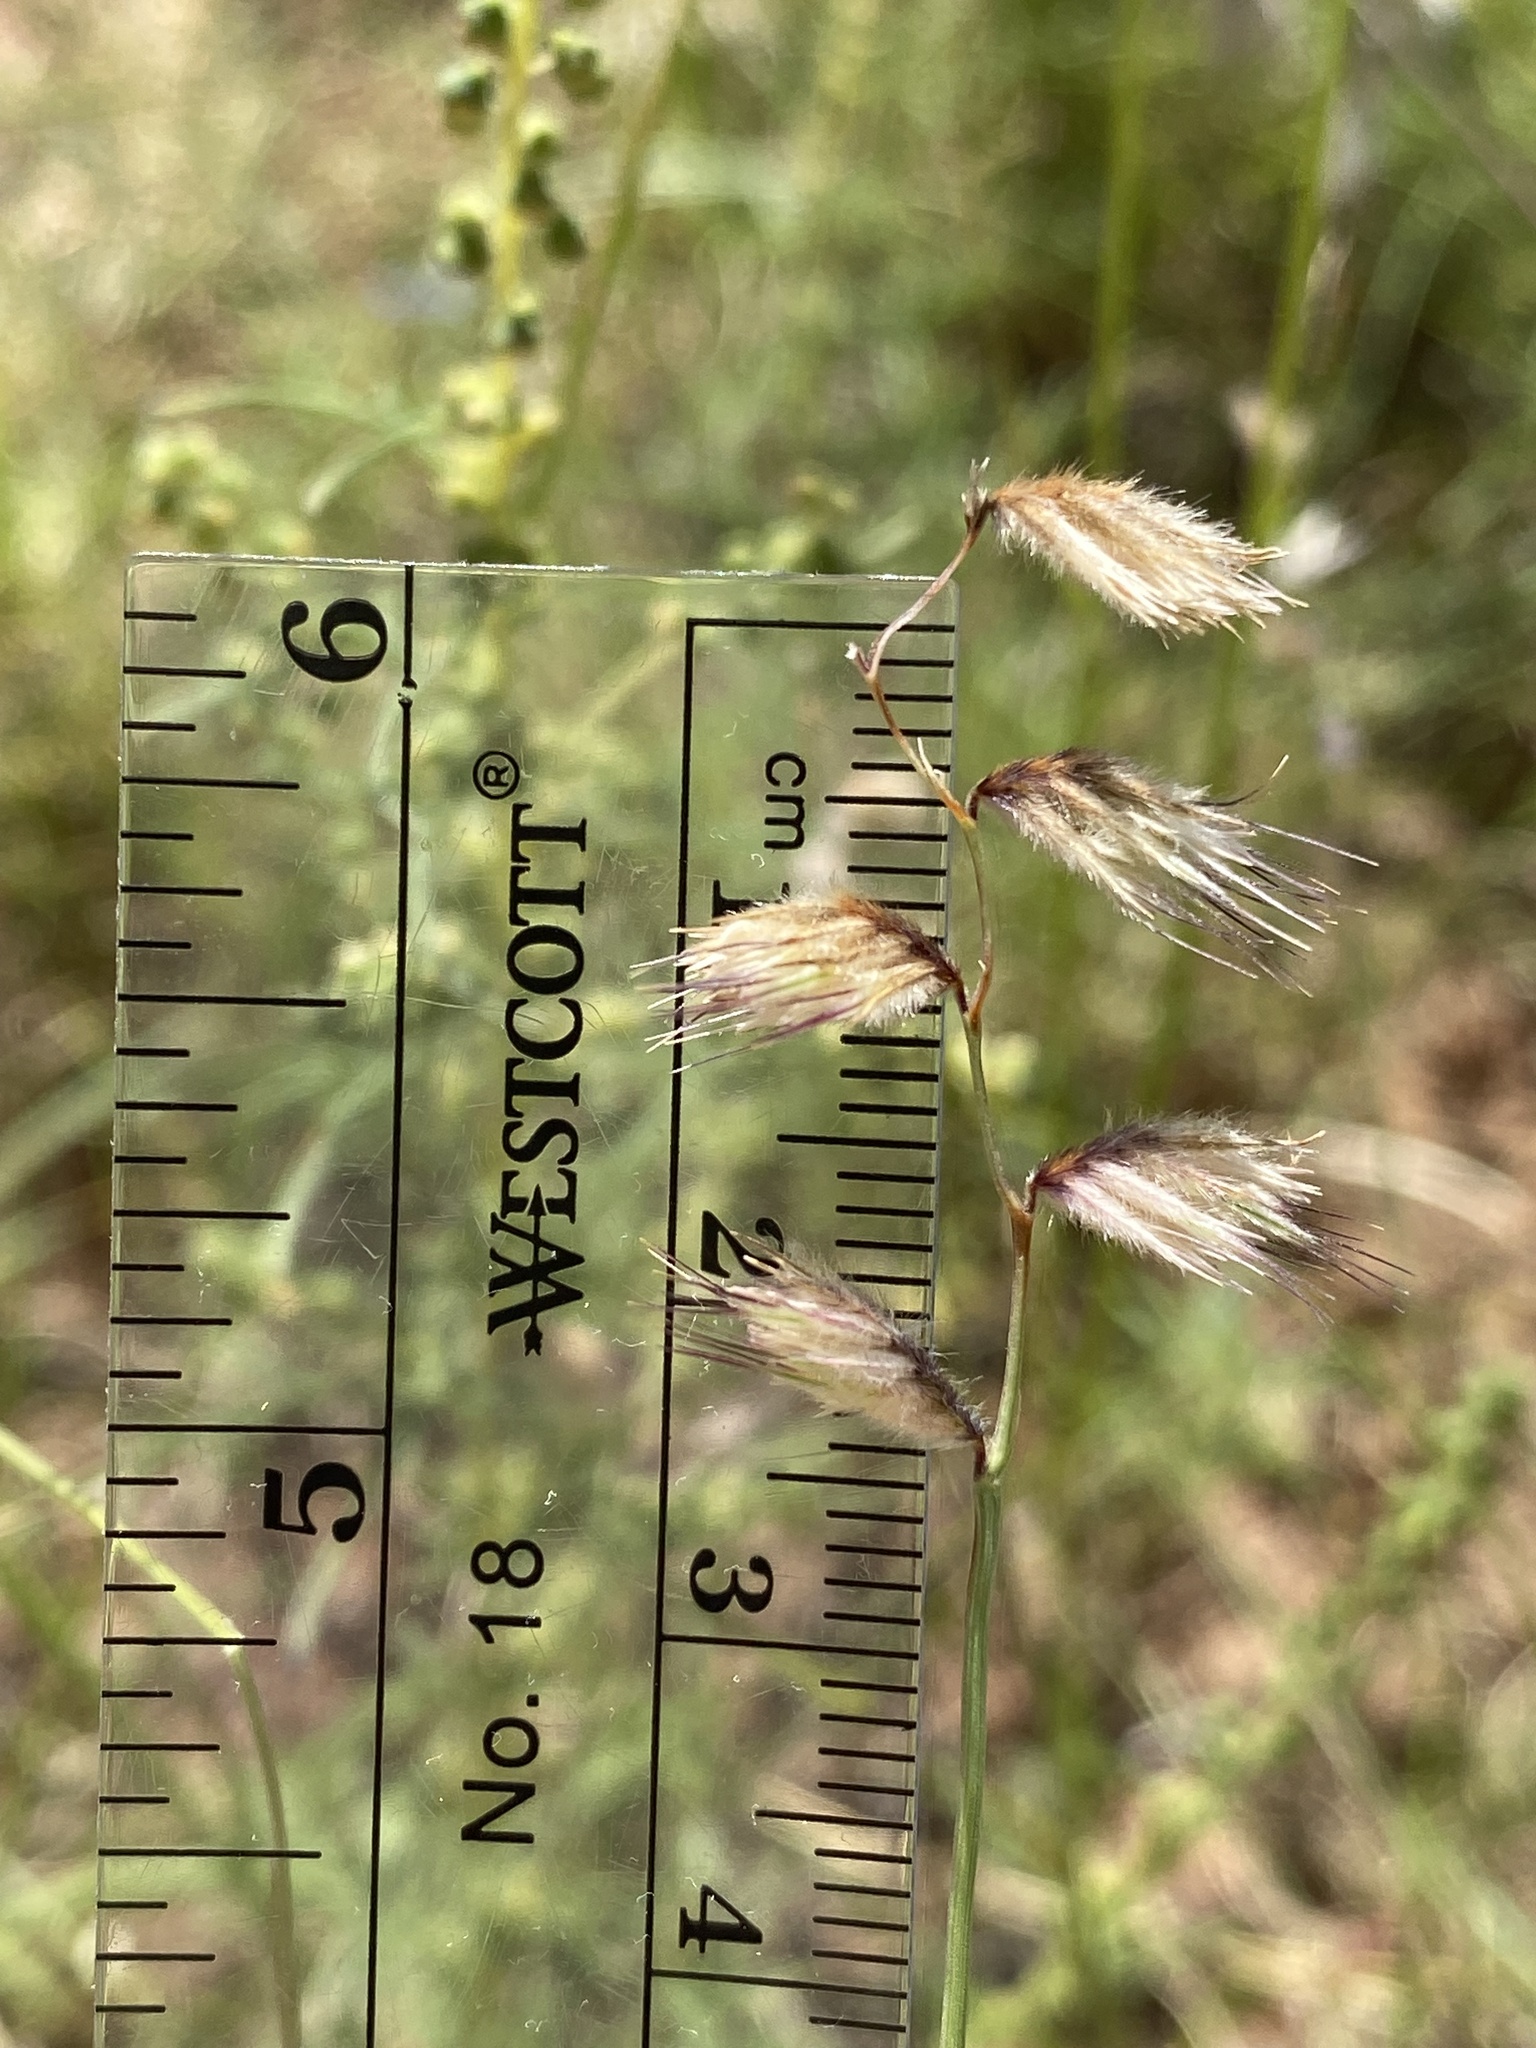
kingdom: Plantae
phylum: Tracheophyta
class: Liliopsida
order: Poales
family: Poaceae
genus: Bouteloua
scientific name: Bouteloua chondrosioides
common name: Sprucetop grama
